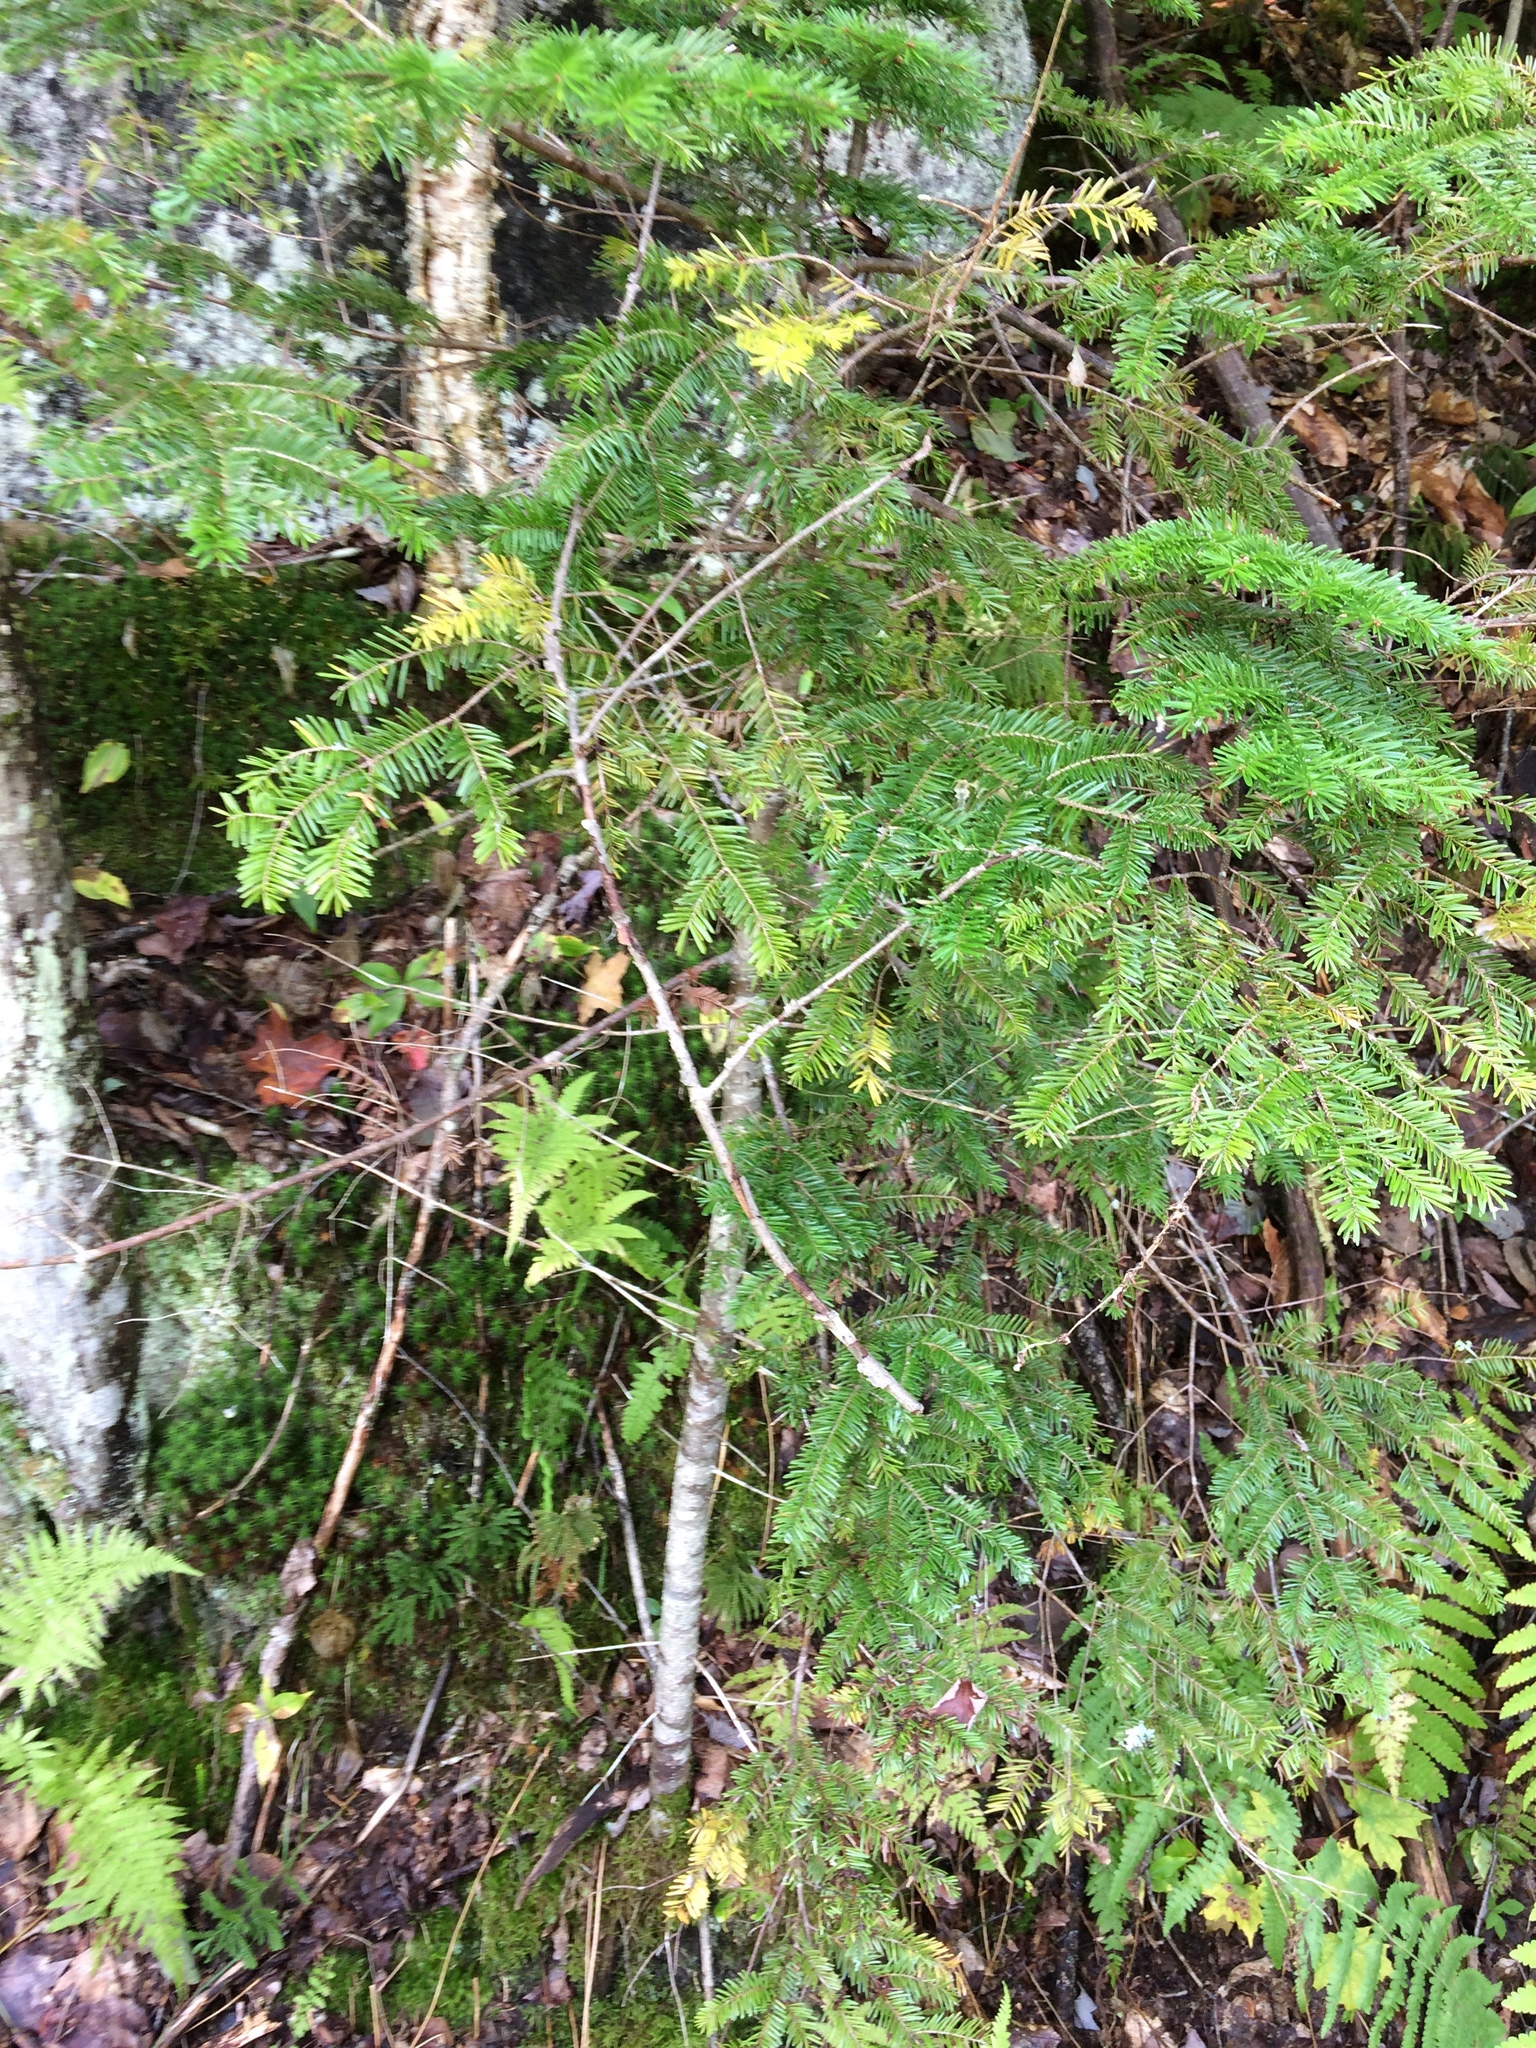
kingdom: Plantae
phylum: Tracheophyta
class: Pinopsida
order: Pinales
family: Pinaceae
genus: Abies
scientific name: Abies balsamea
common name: Balsam fir
